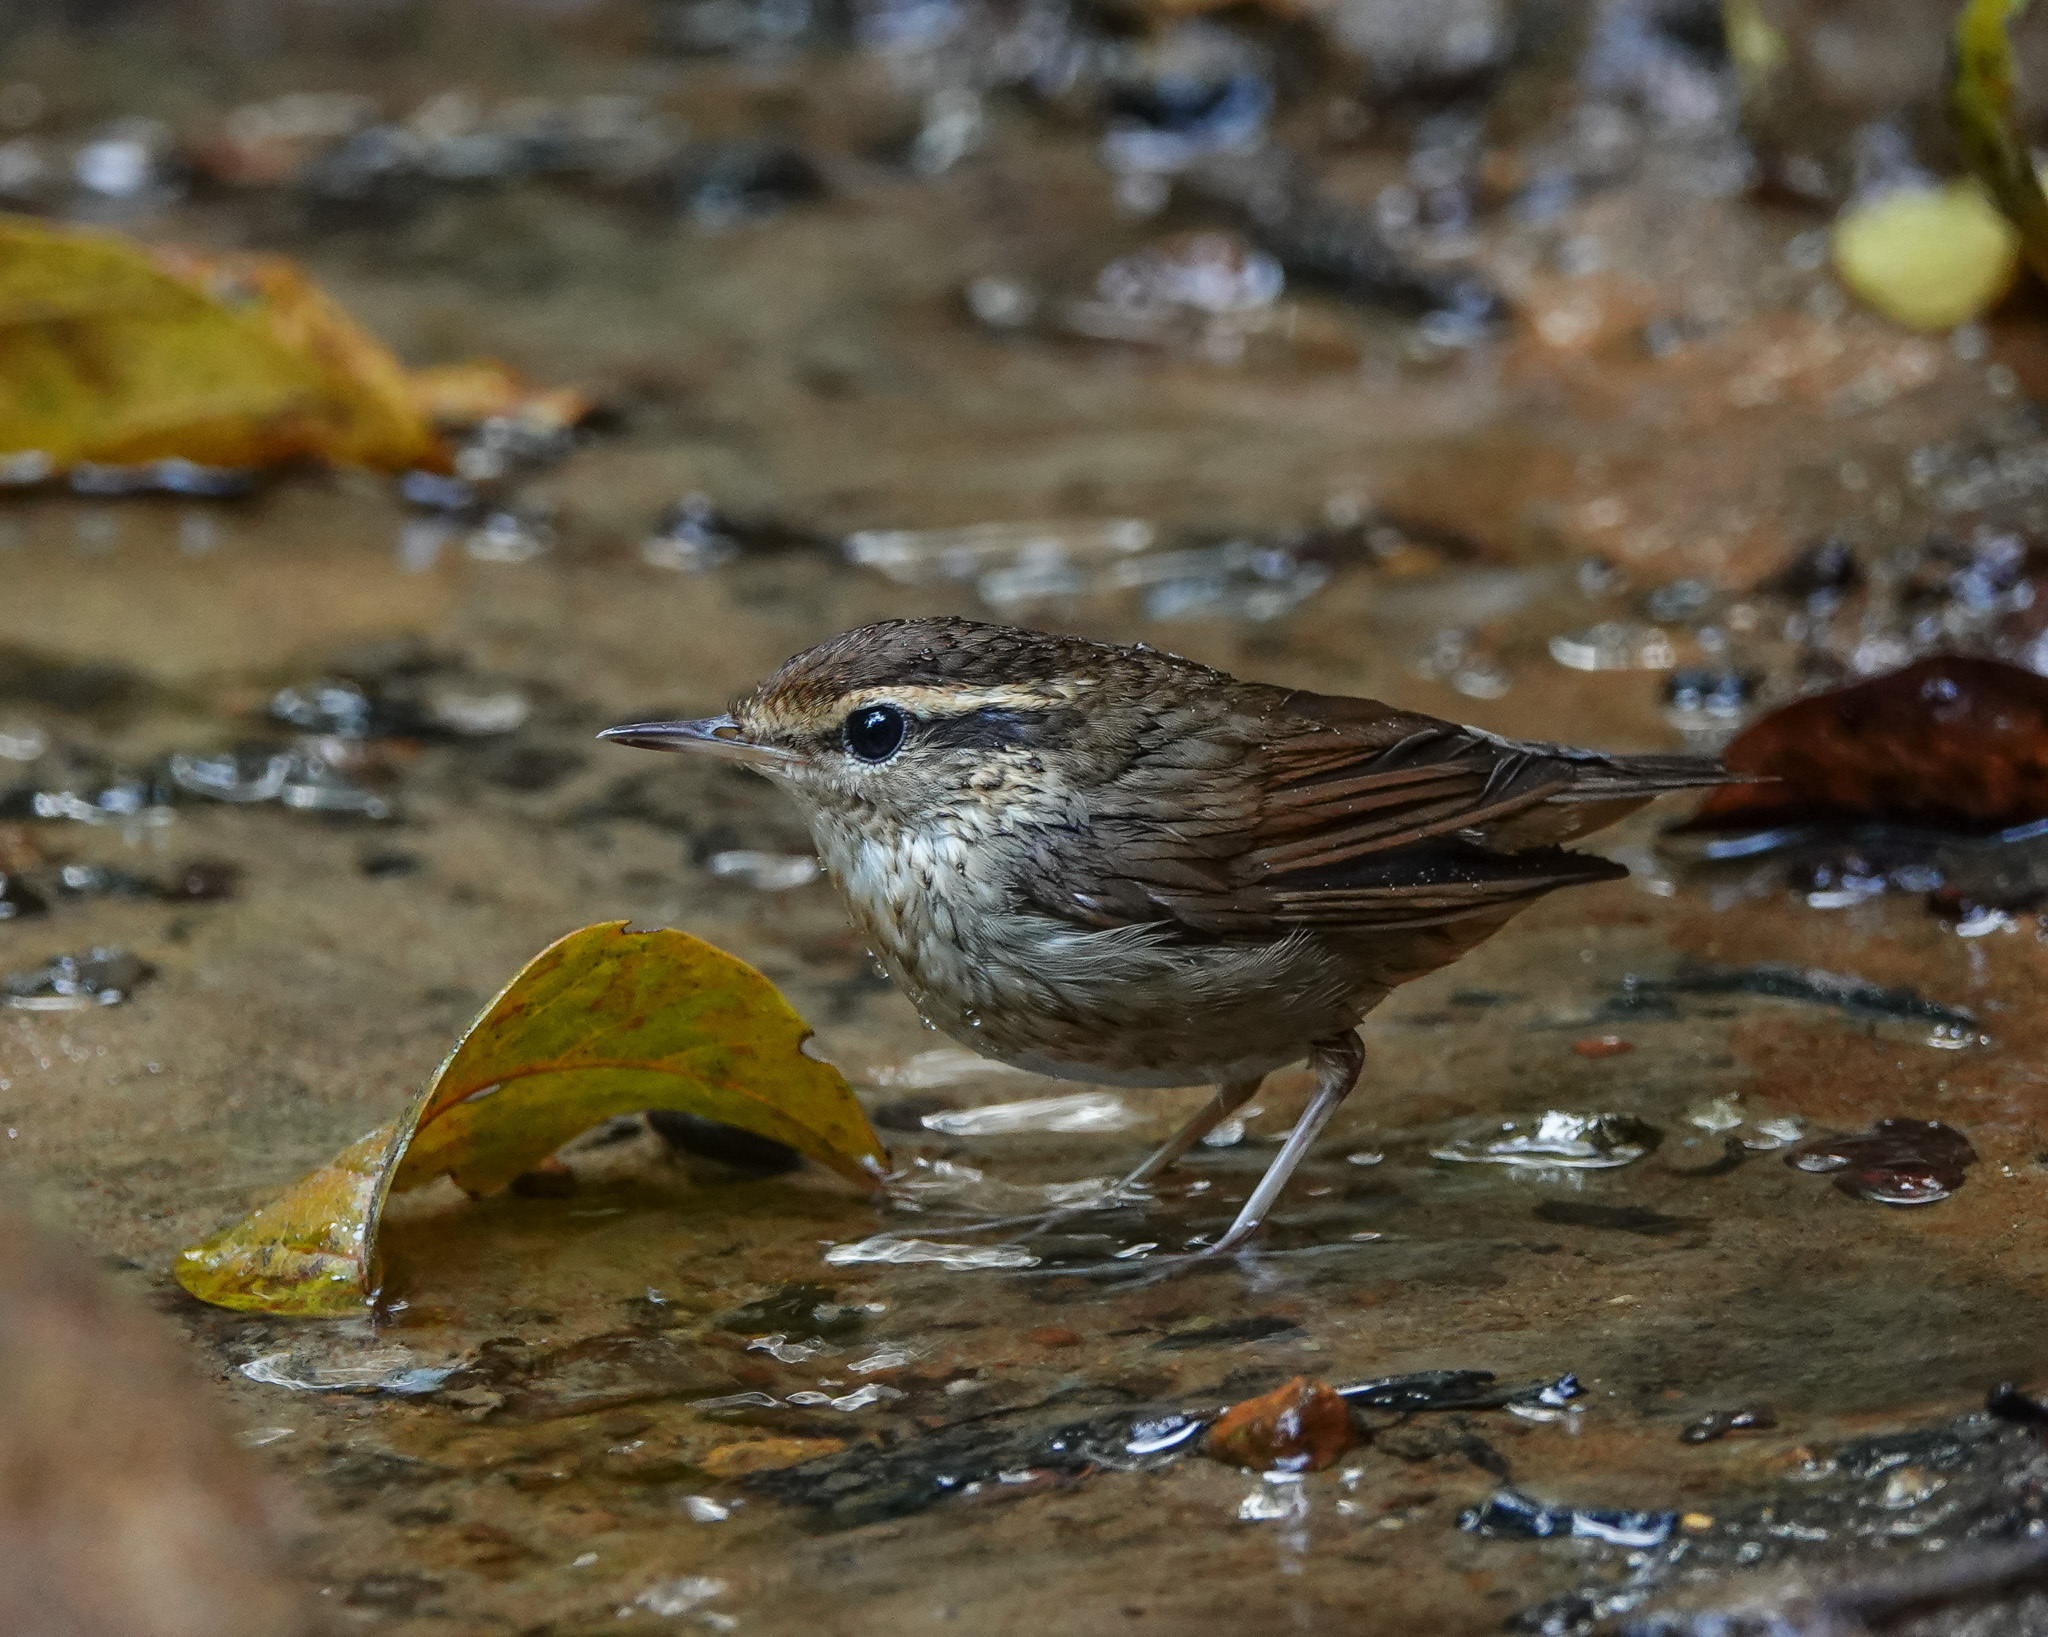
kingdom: Animalia
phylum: Chordata
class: Aves
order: Passeriformes
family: Cettiidae
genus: Urosphena
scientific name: Urosphena squameiceps
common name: Asian stubtail
